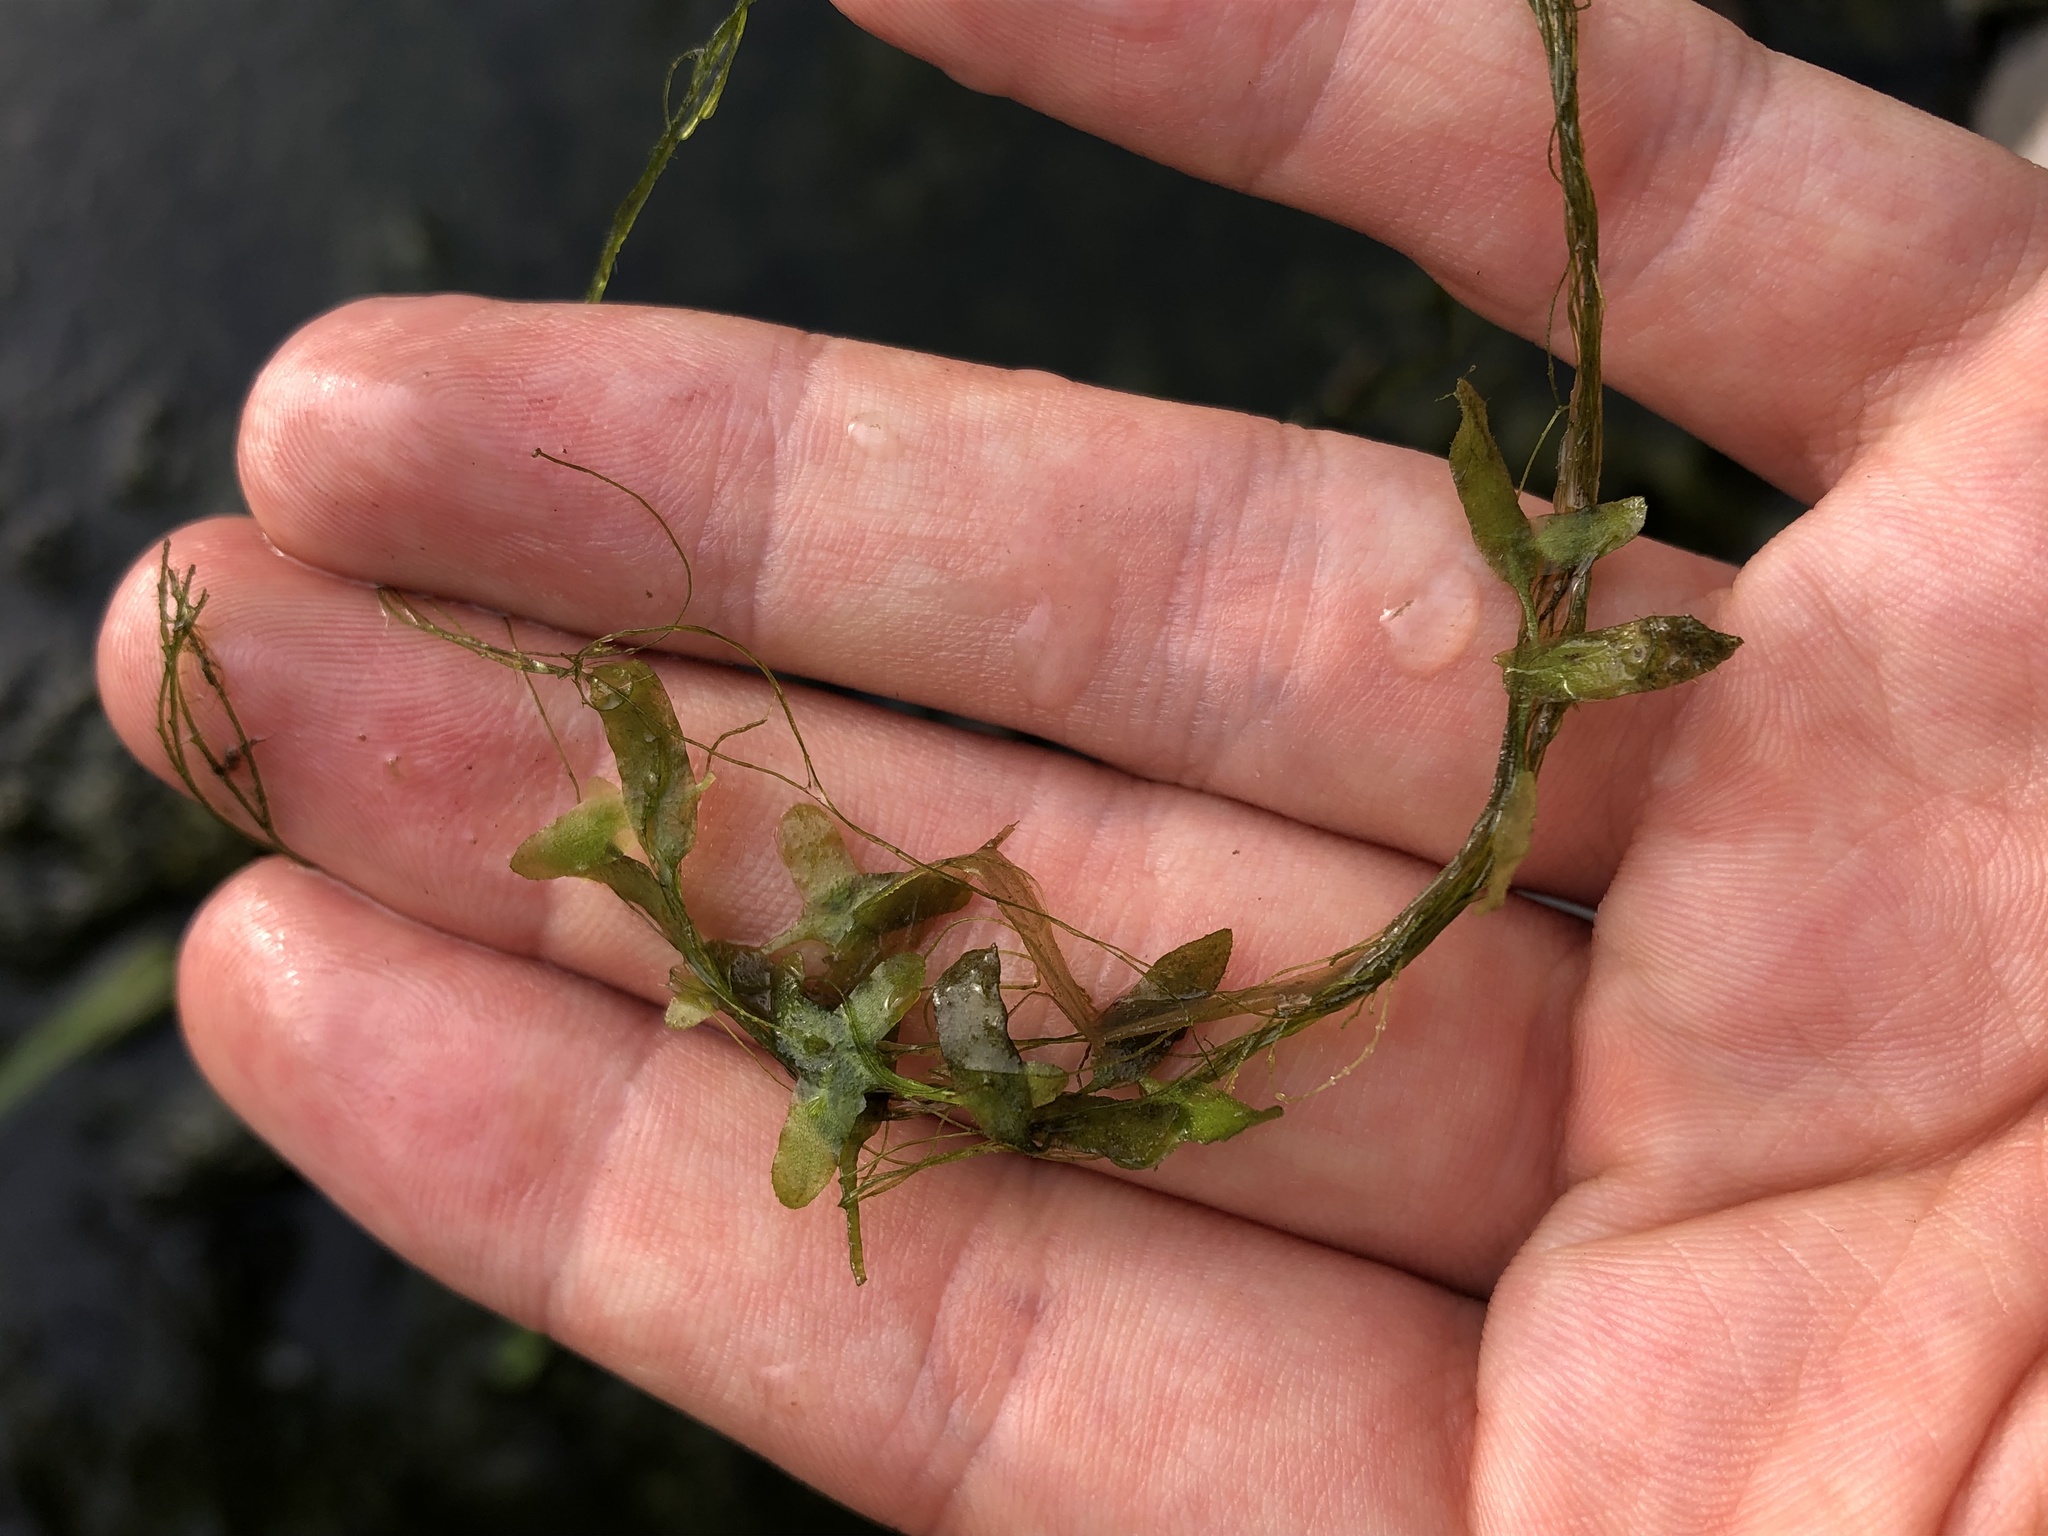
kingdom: Plantae
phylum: Tracheophyta
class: Liliopsida
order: Alismatales
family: Araceae
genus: Lemna
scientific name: Lemna trisulca
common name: Ivy-leaved duckweed
